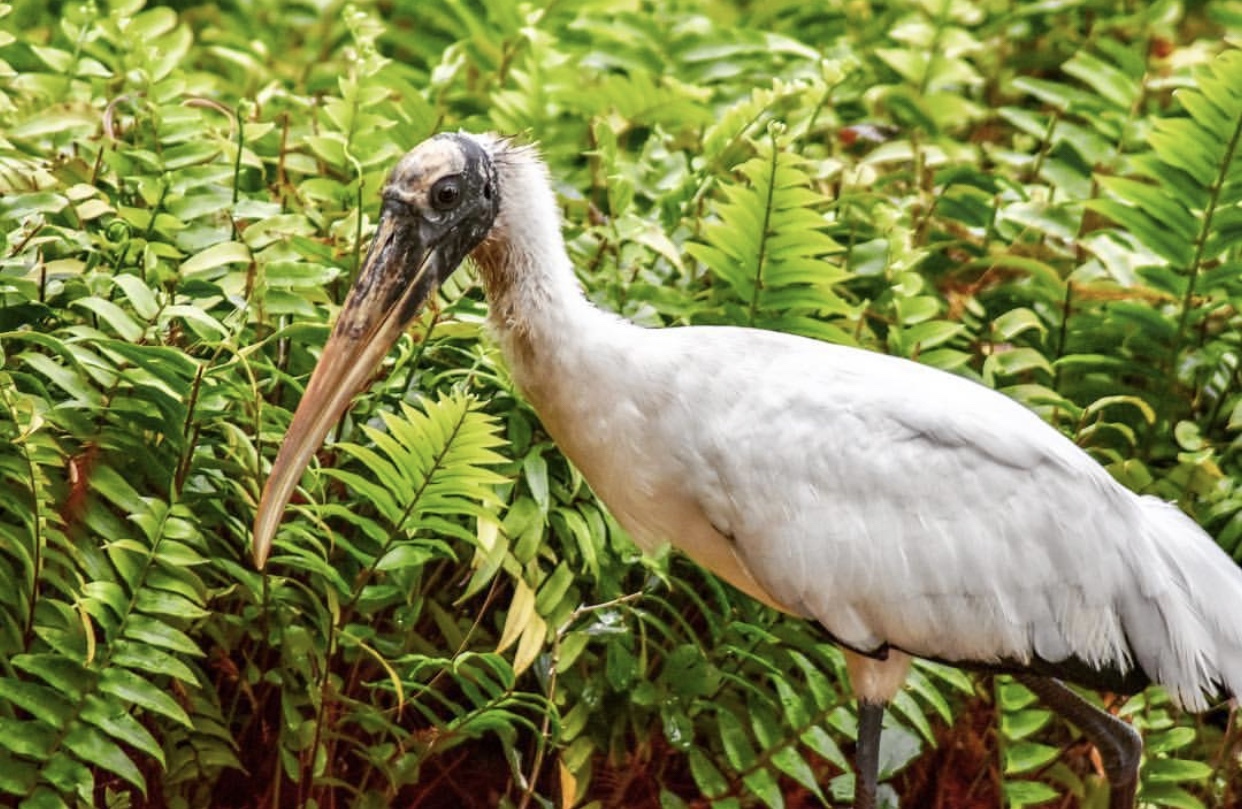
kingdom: Animalia
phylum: Chordata
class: Aves
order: Ciconiiformes
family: Ciconiidae
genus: Mycteria
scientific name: Mycteria americana
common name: Wood stork
